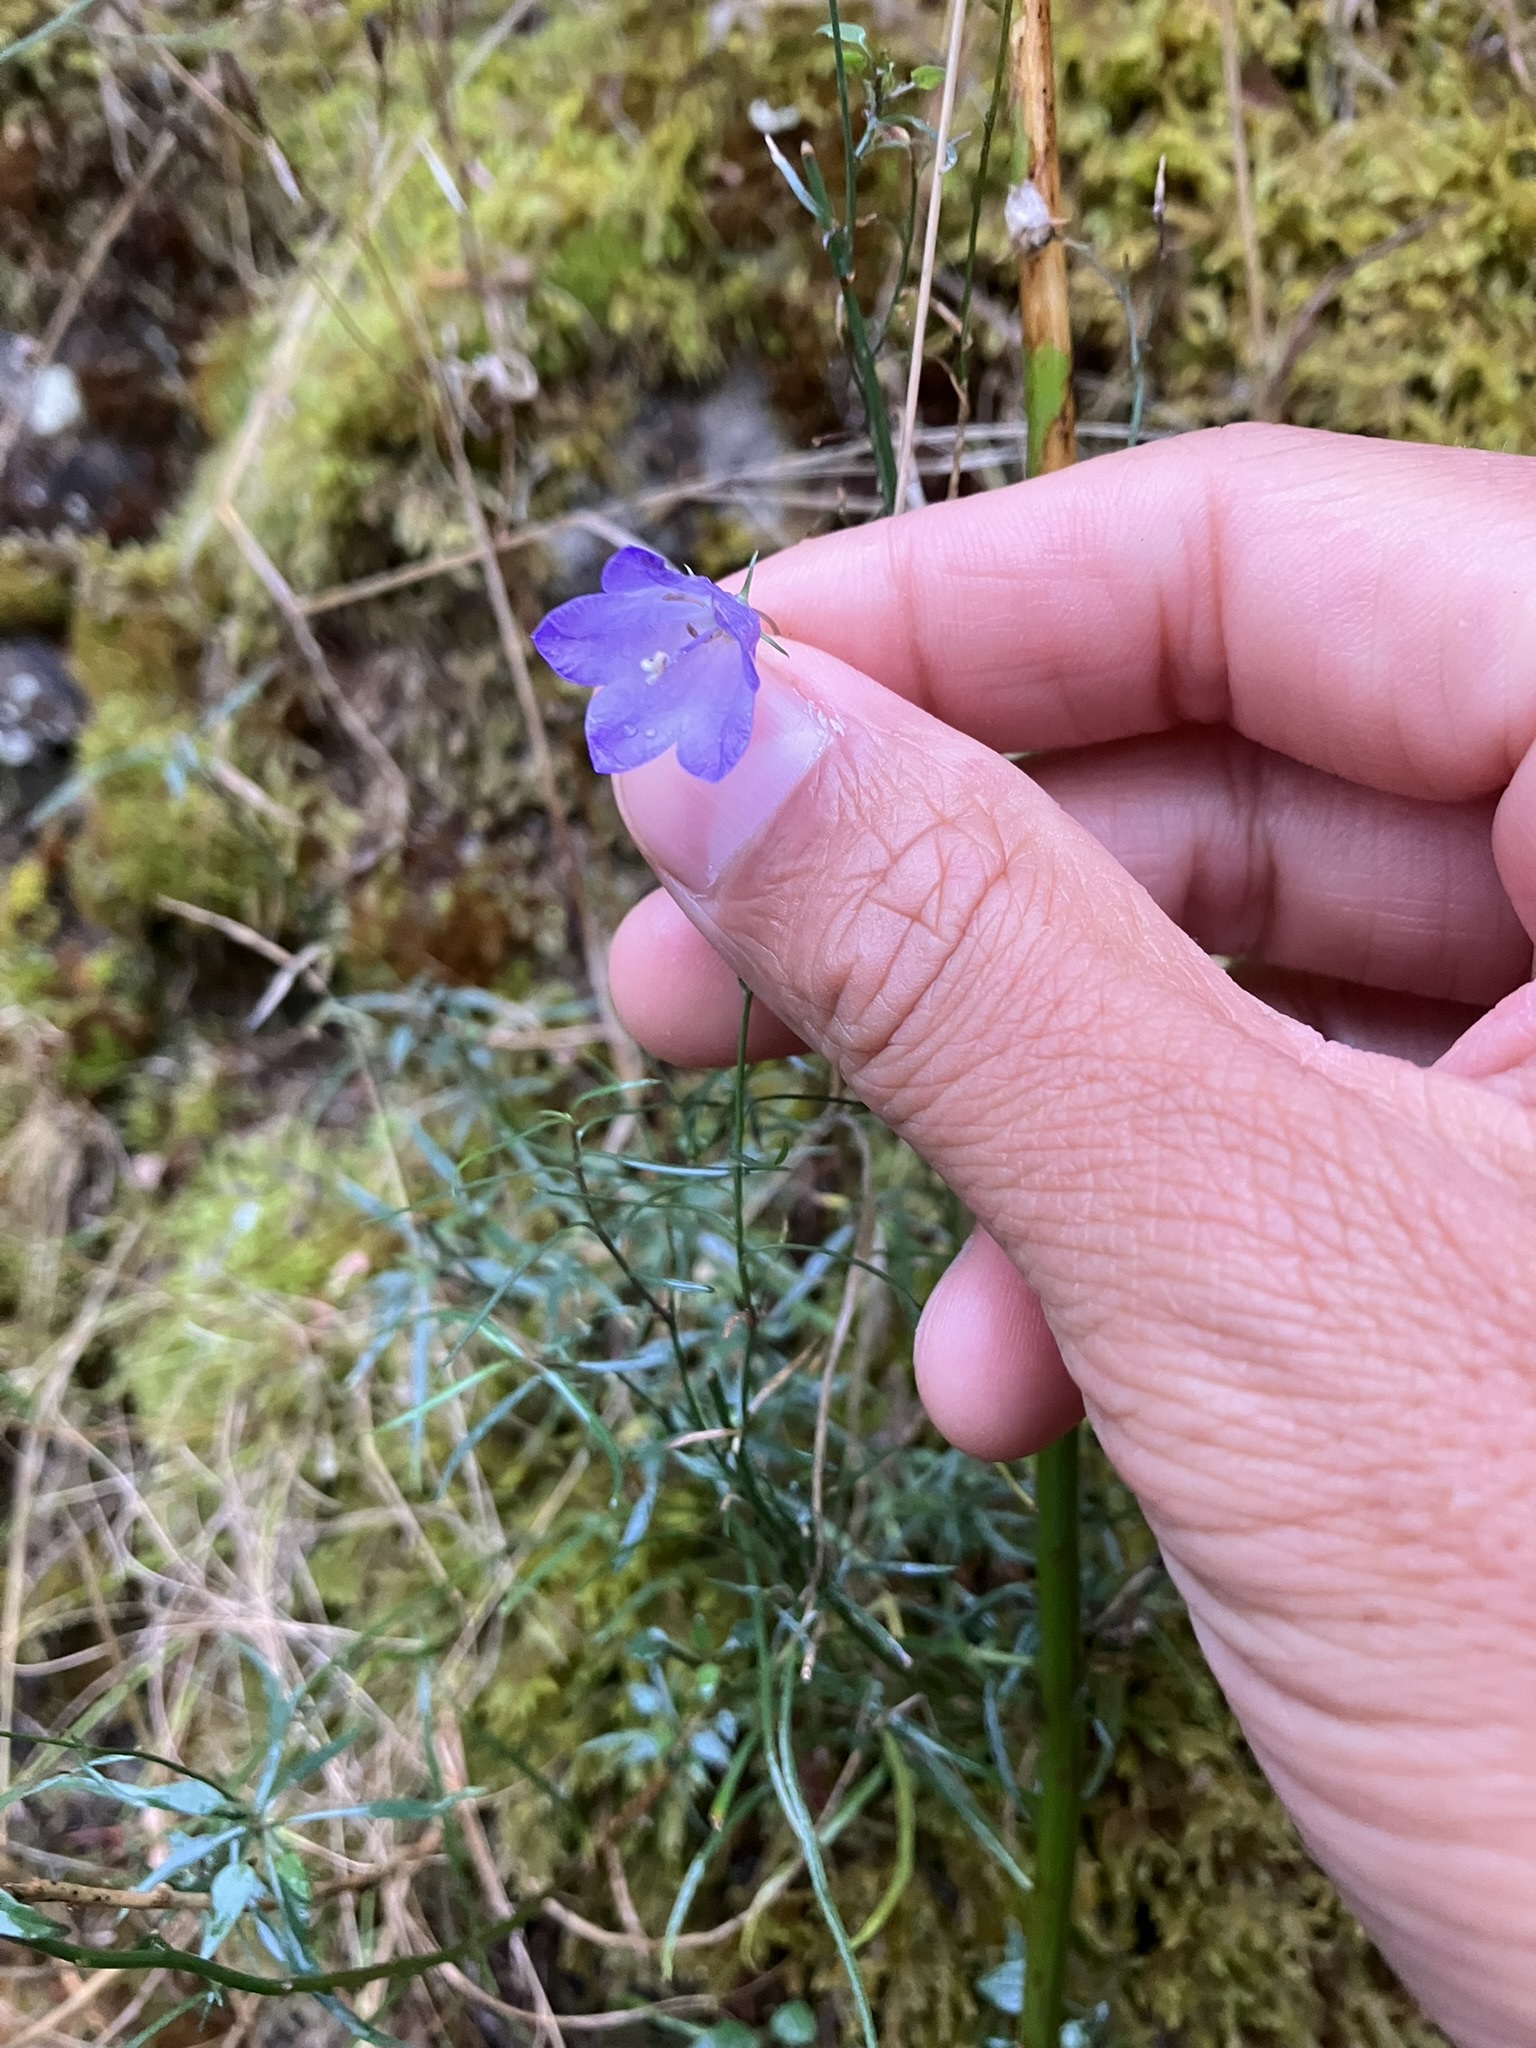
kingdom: Plantae
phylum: Tracheophyta
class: Magnoliopsida
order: Asterales
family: Campanulaceae
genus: Campanula
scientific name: Campanula petiolata
